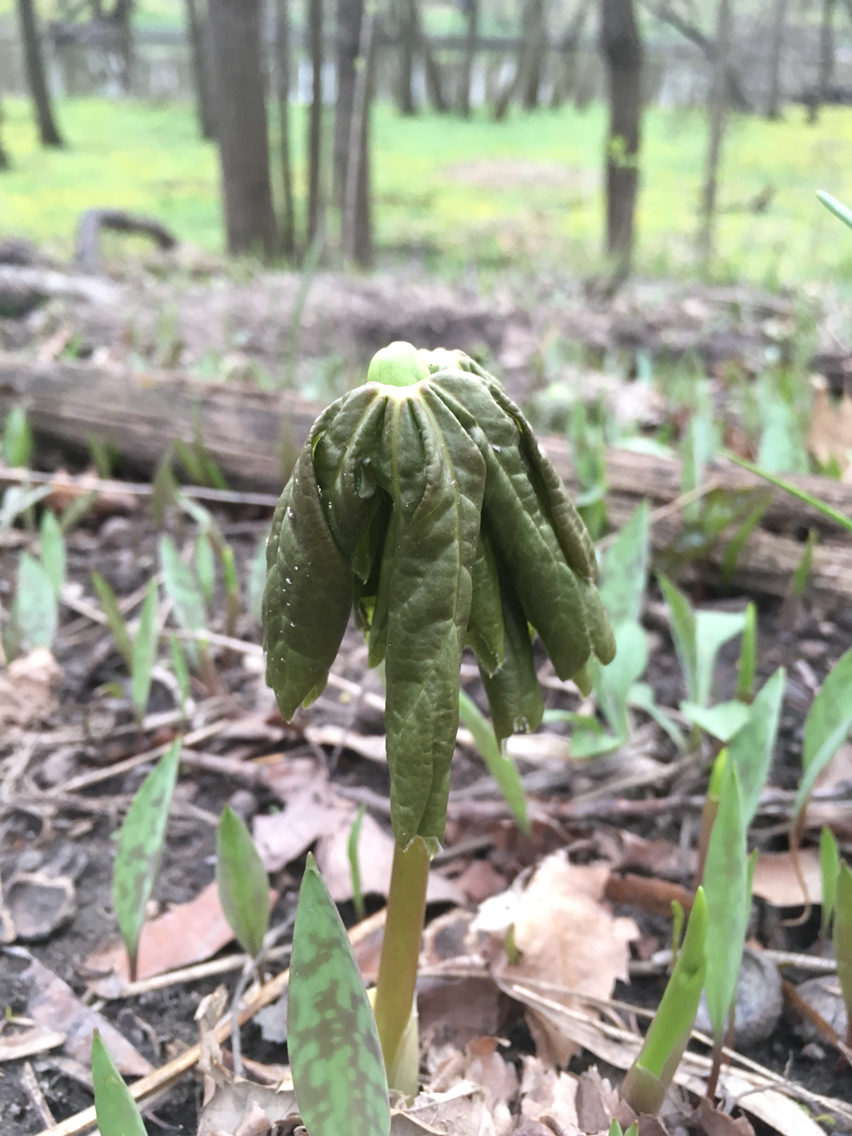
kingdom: Plantae
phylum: Tracheophyta
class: Magnoliopsida
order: Ranunculales
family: Berberidaceae
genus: Podophyllum
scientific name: Podophyllum peltatum
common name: Wild mandrake
